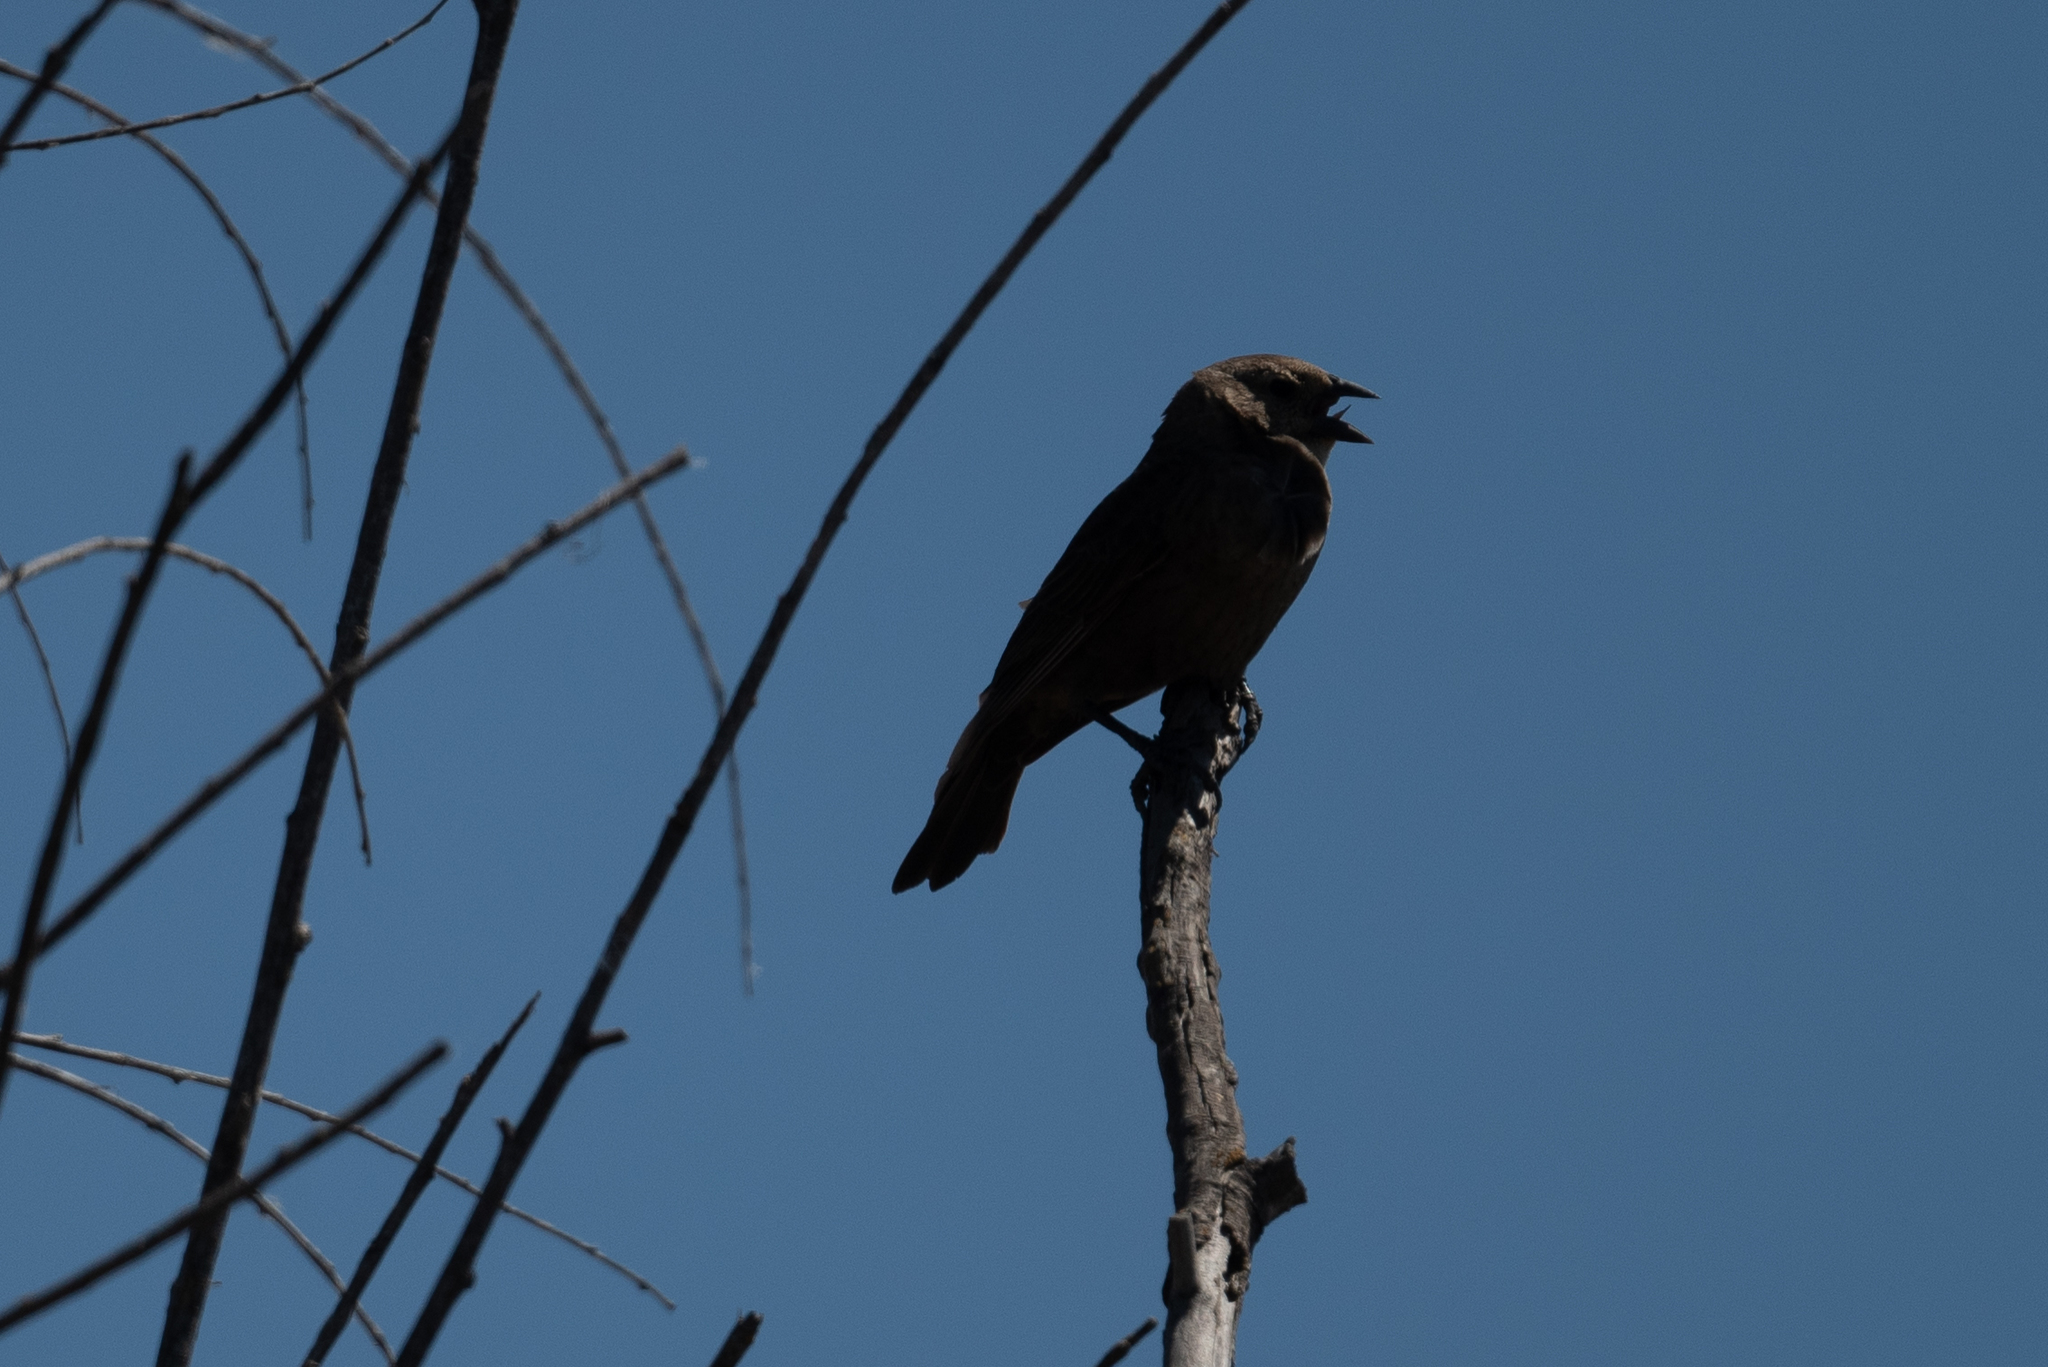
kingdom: Animalia
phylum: Chordata
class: Aves
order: Passeriformes
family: Icteridae
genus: Molothrus
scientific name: Molothrus ater
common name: Brown-headed cowbird
